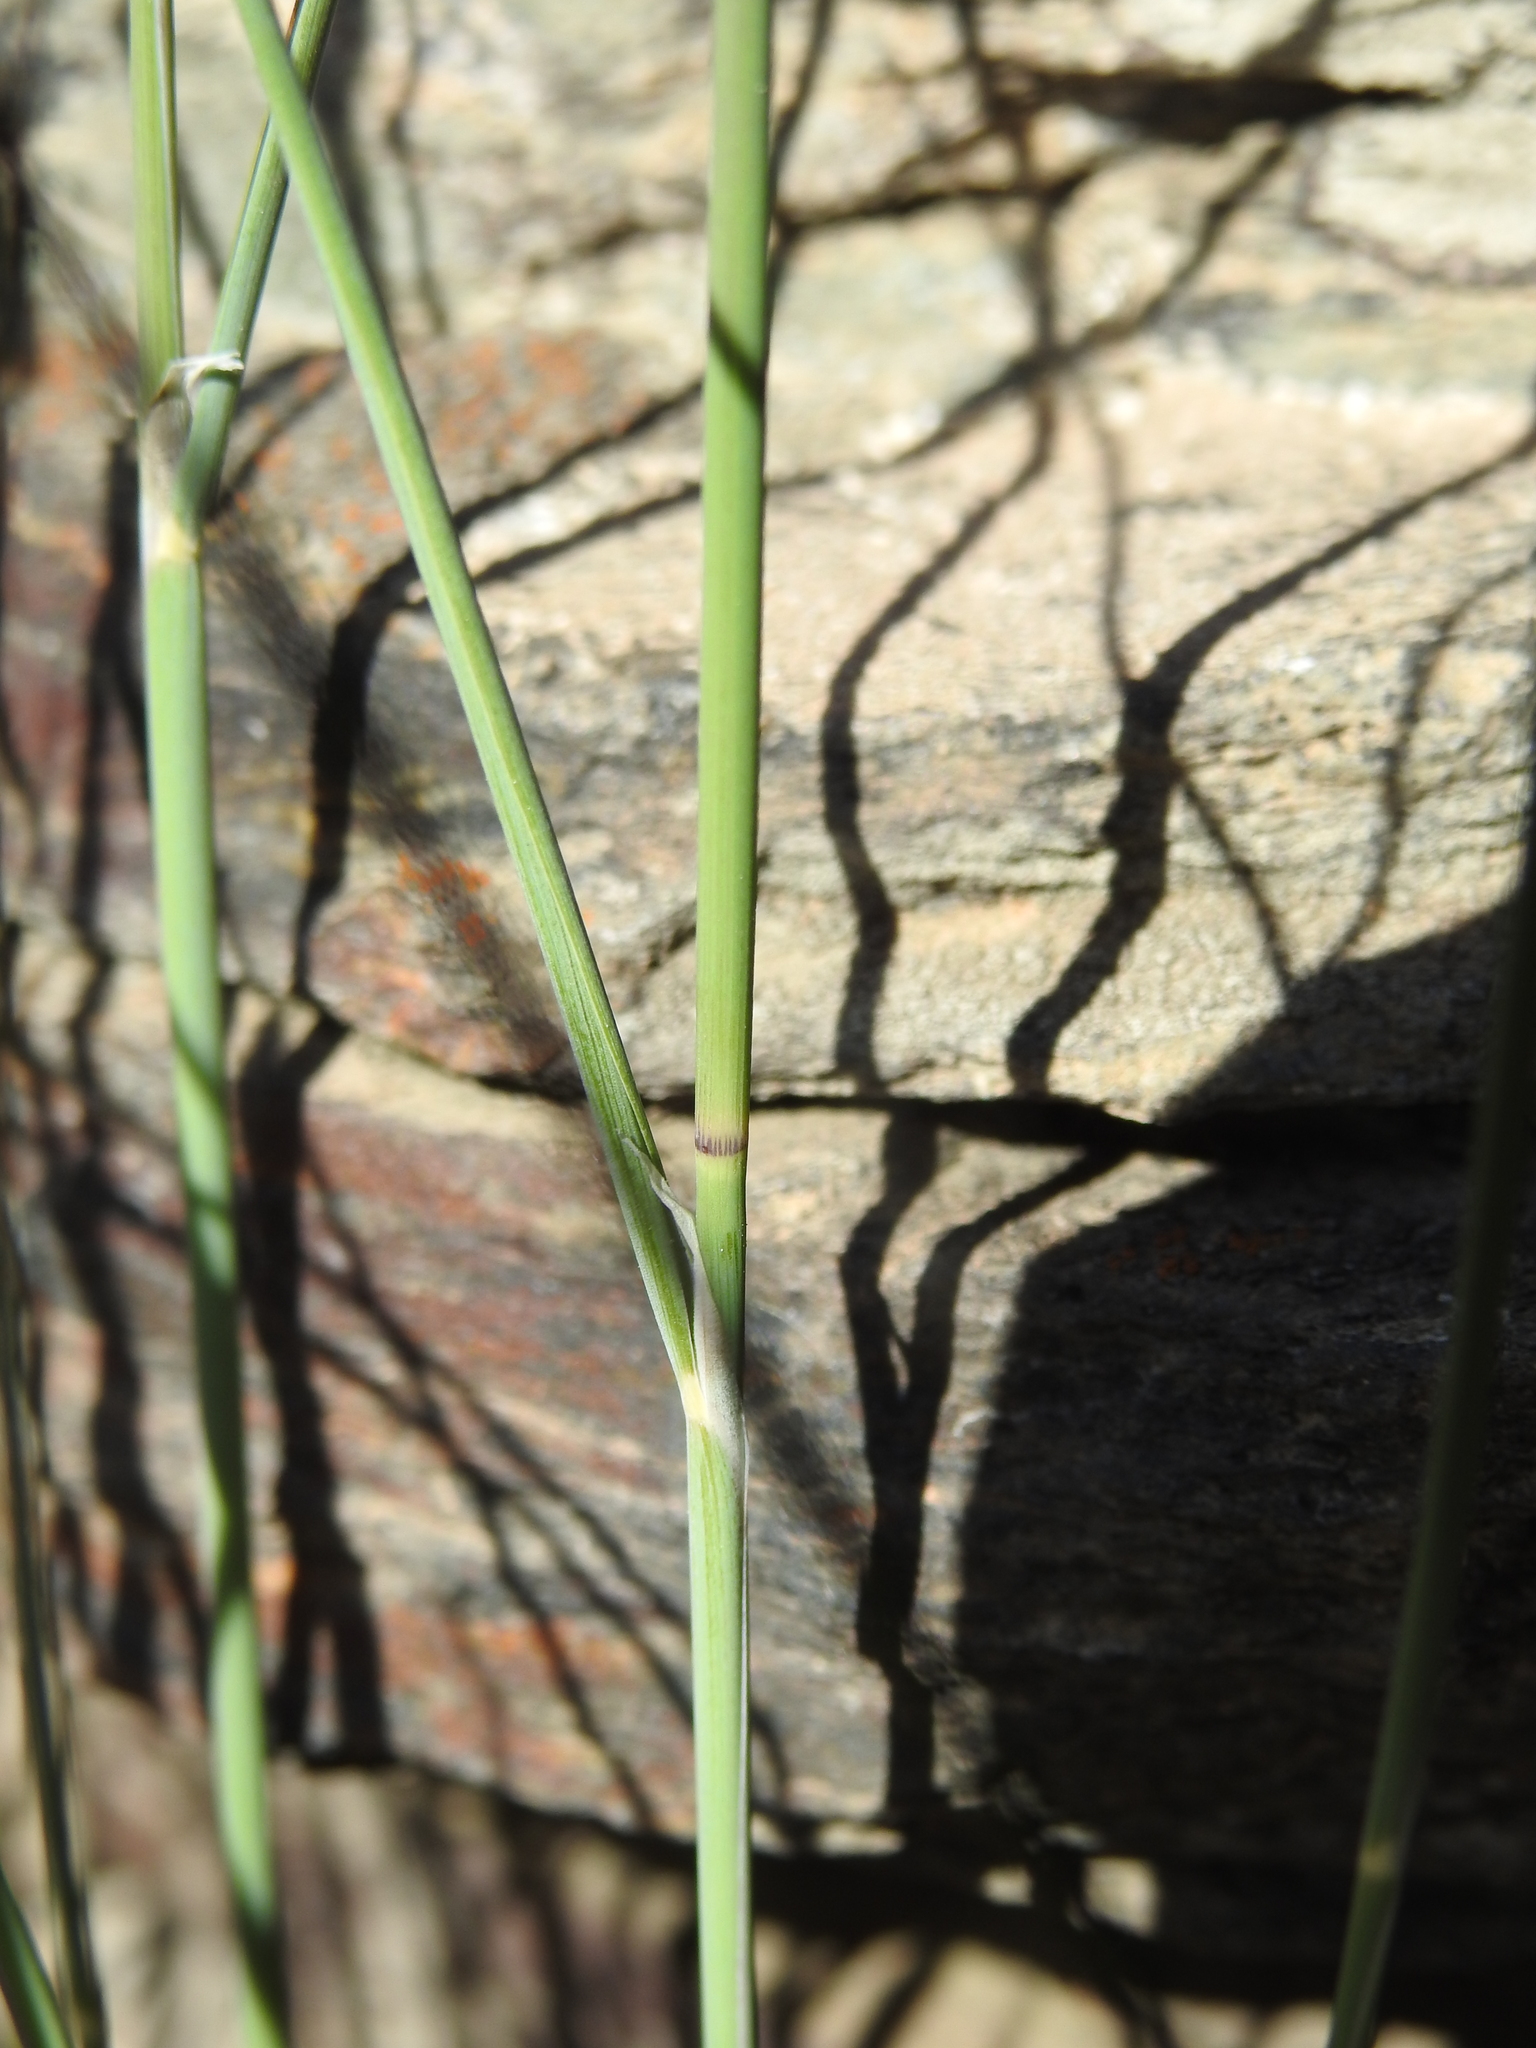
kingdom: Plantae
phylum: Tracheophyta
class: Liliopsida
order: Poales
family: Poaceae
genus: Oryzopsis
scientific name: Oryzopsis coerulescens
